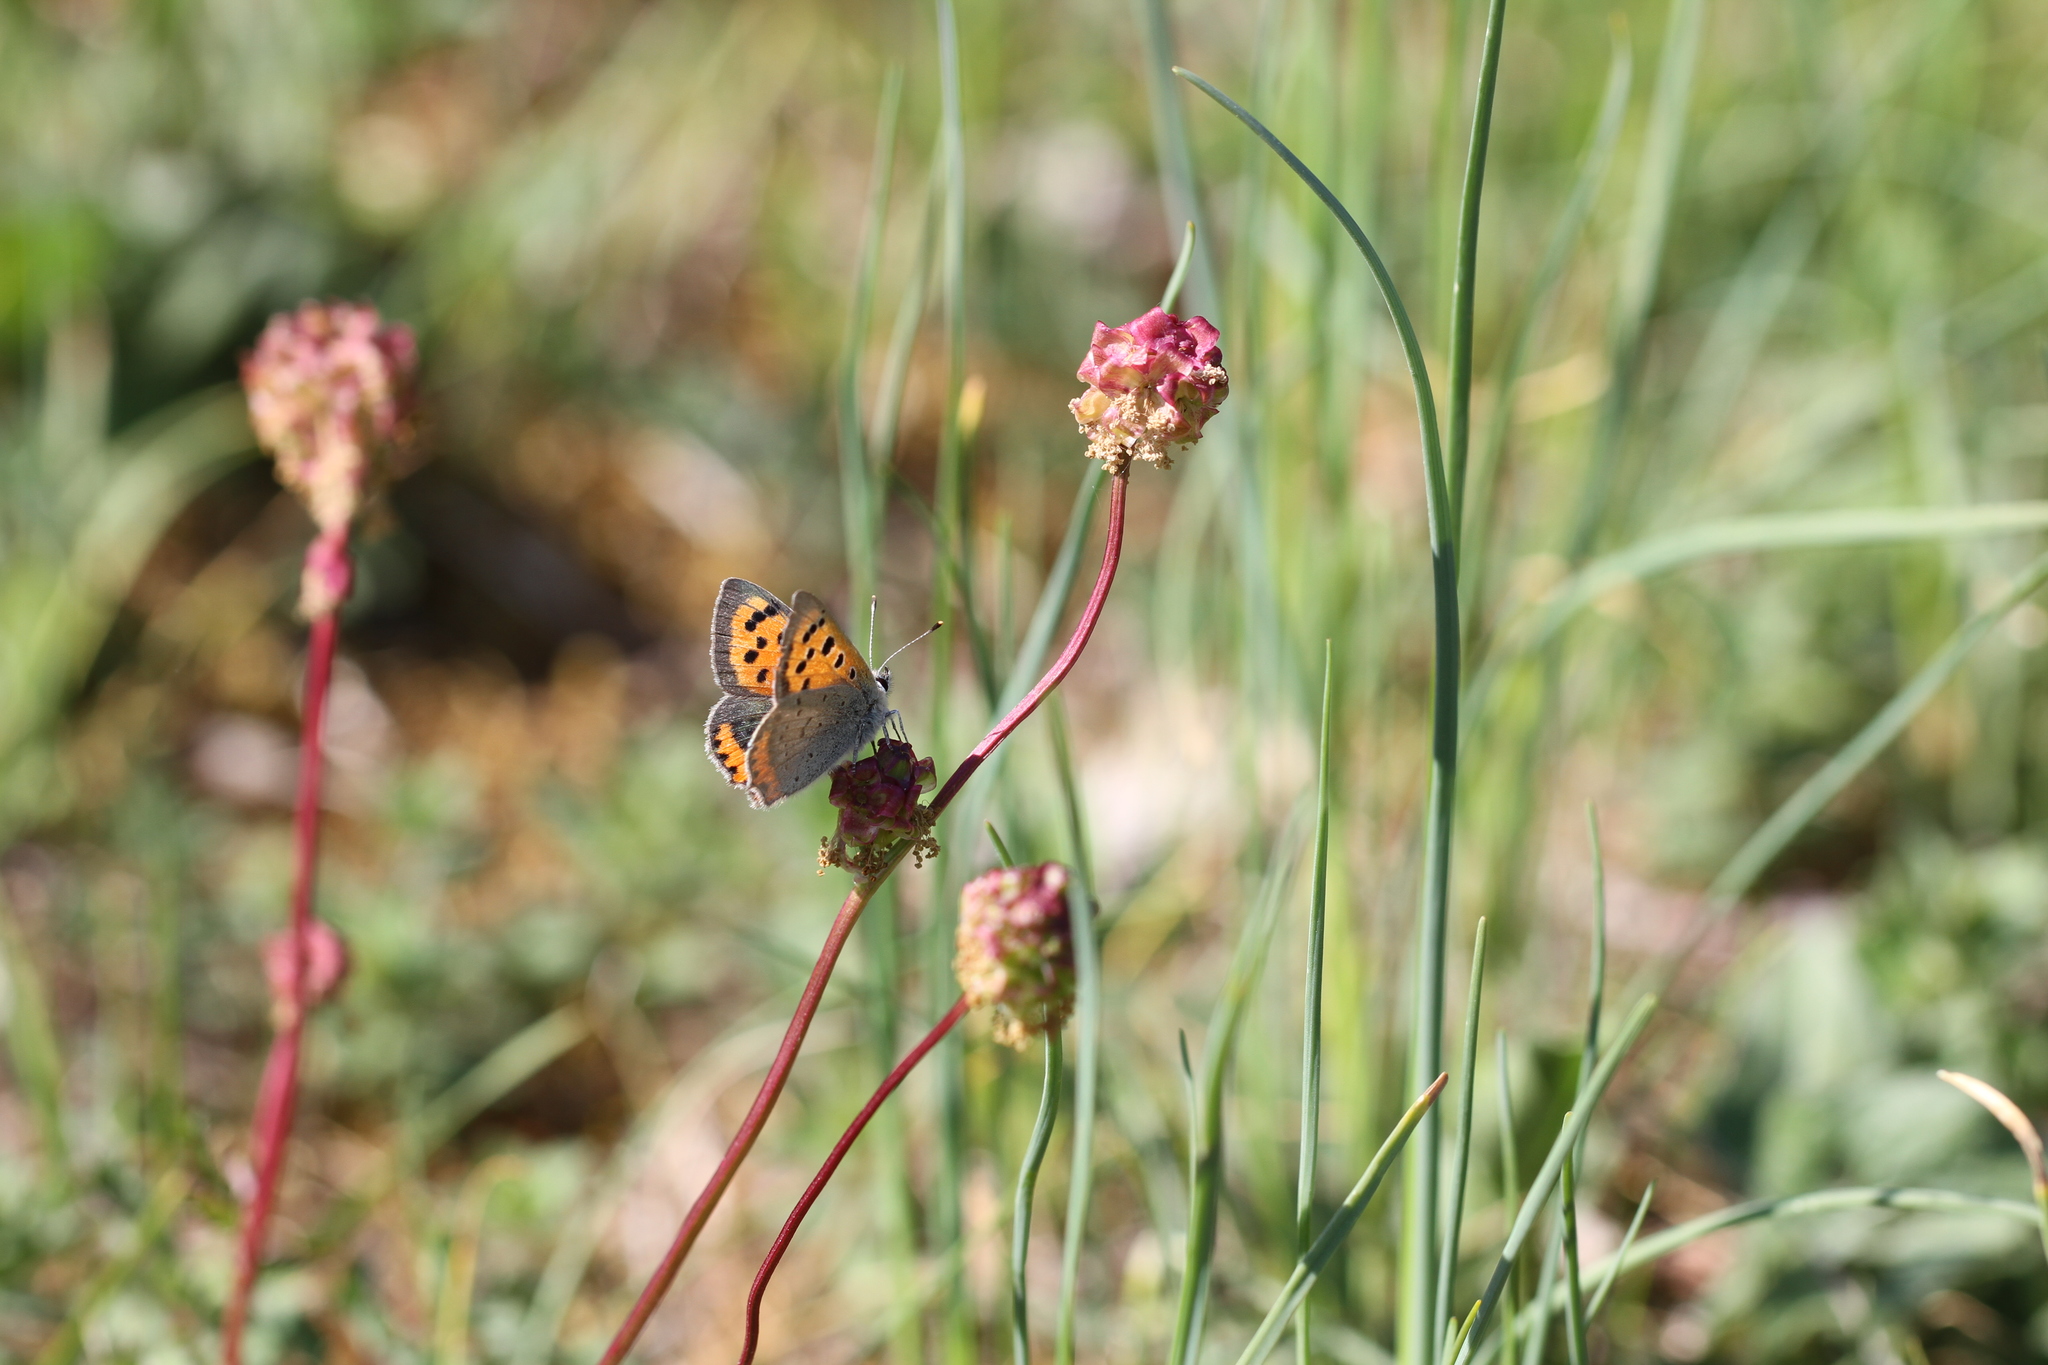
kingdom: Animalia
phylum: Arthropoda
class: Insecta
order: Lepidoptera
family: Lycaenidae
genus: Lycaena
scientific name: Lycaena phlaeas
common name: Small copper
